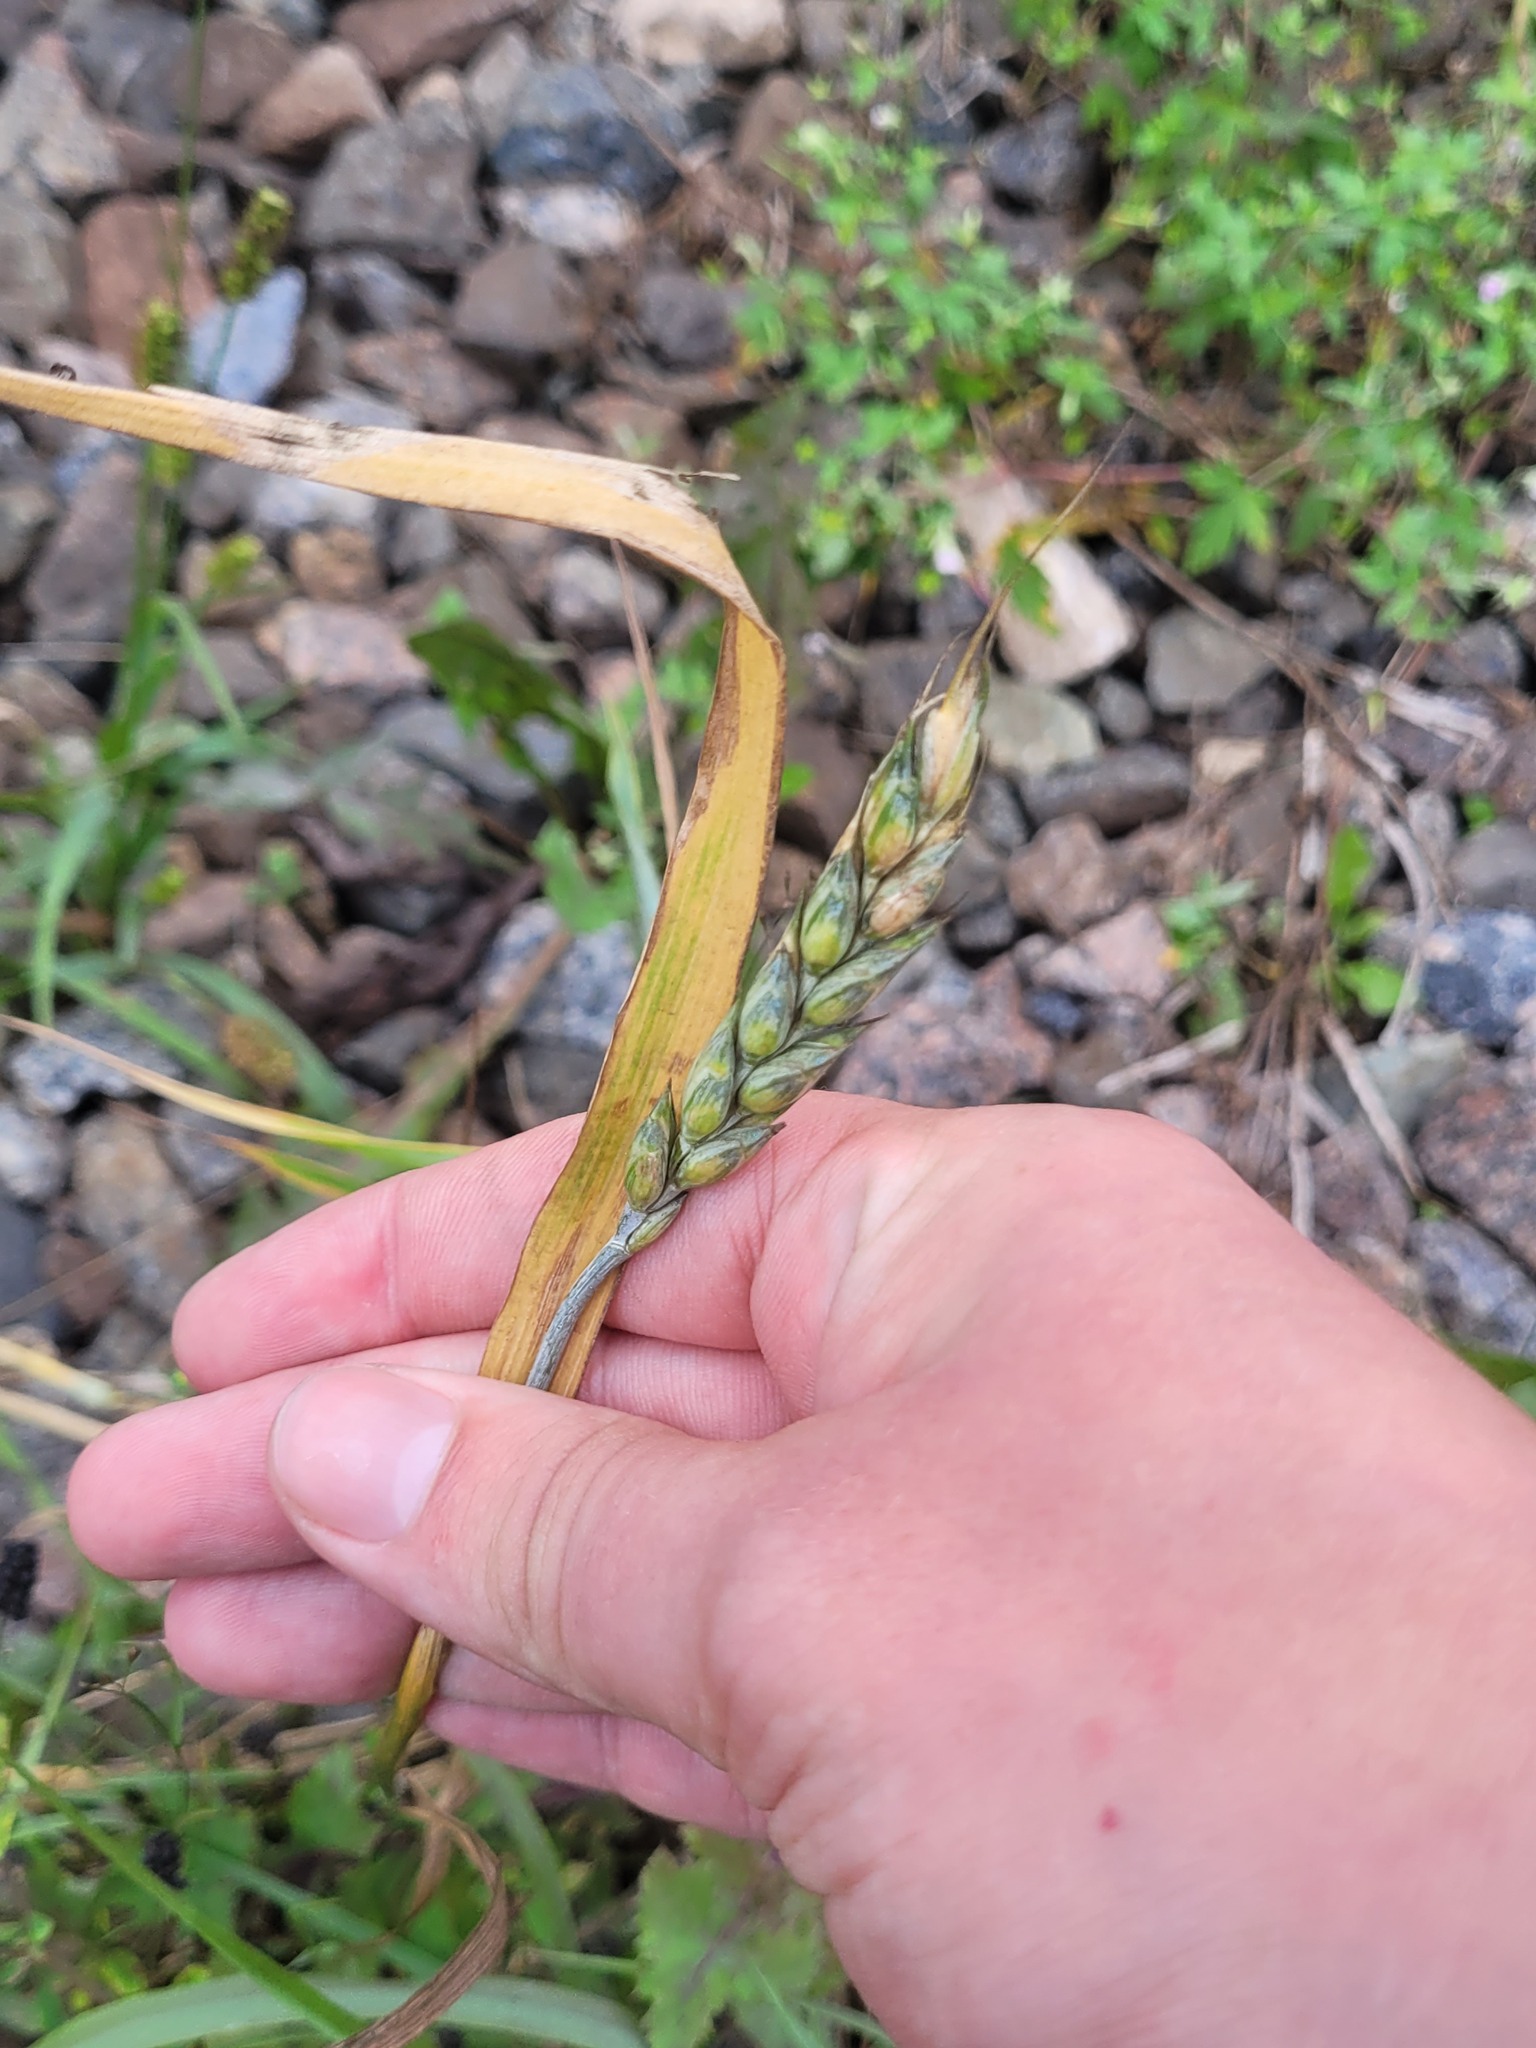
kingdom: Plantae
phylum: Tracheophyta
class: Liliopsida
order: Poales
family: Poaceae
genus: Triticum
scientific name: Triticum aestivum
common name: Common wheat
